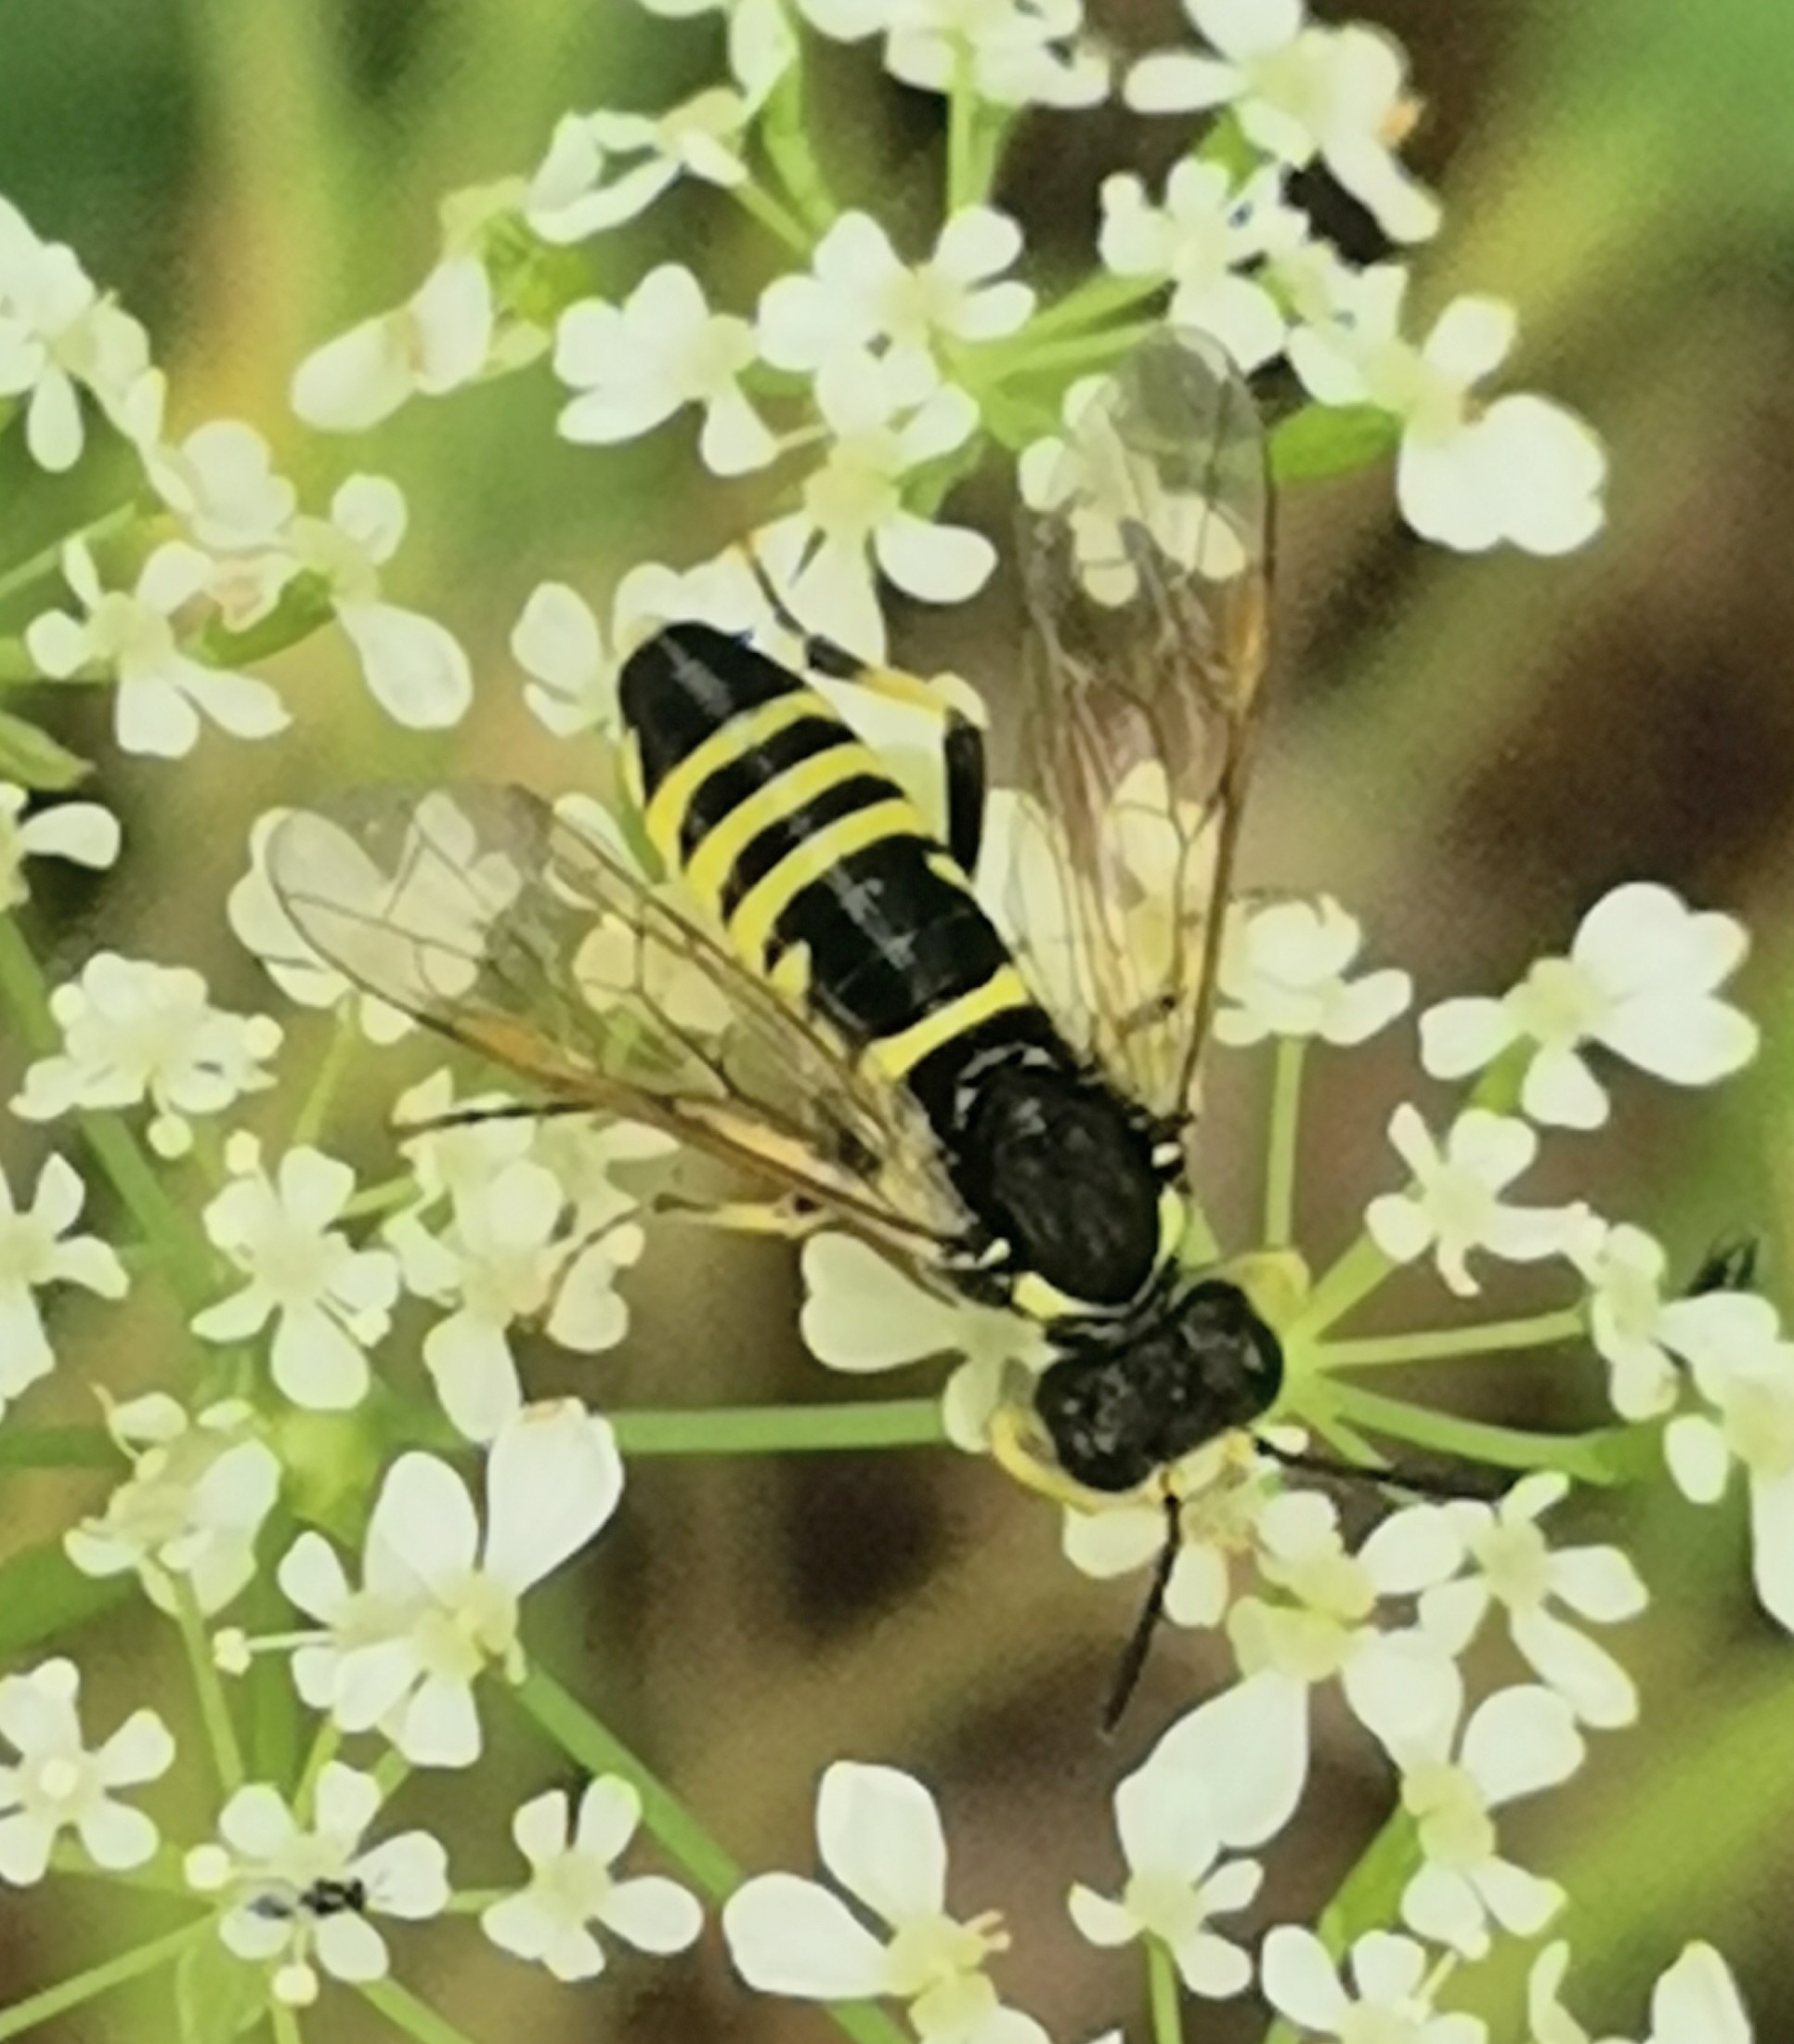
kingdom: Animalia
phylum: Arthropoda
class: Insecta
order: Hymenoptera
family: Tenthredinidae
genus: Tenthredo
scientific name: Tenthredo notha
